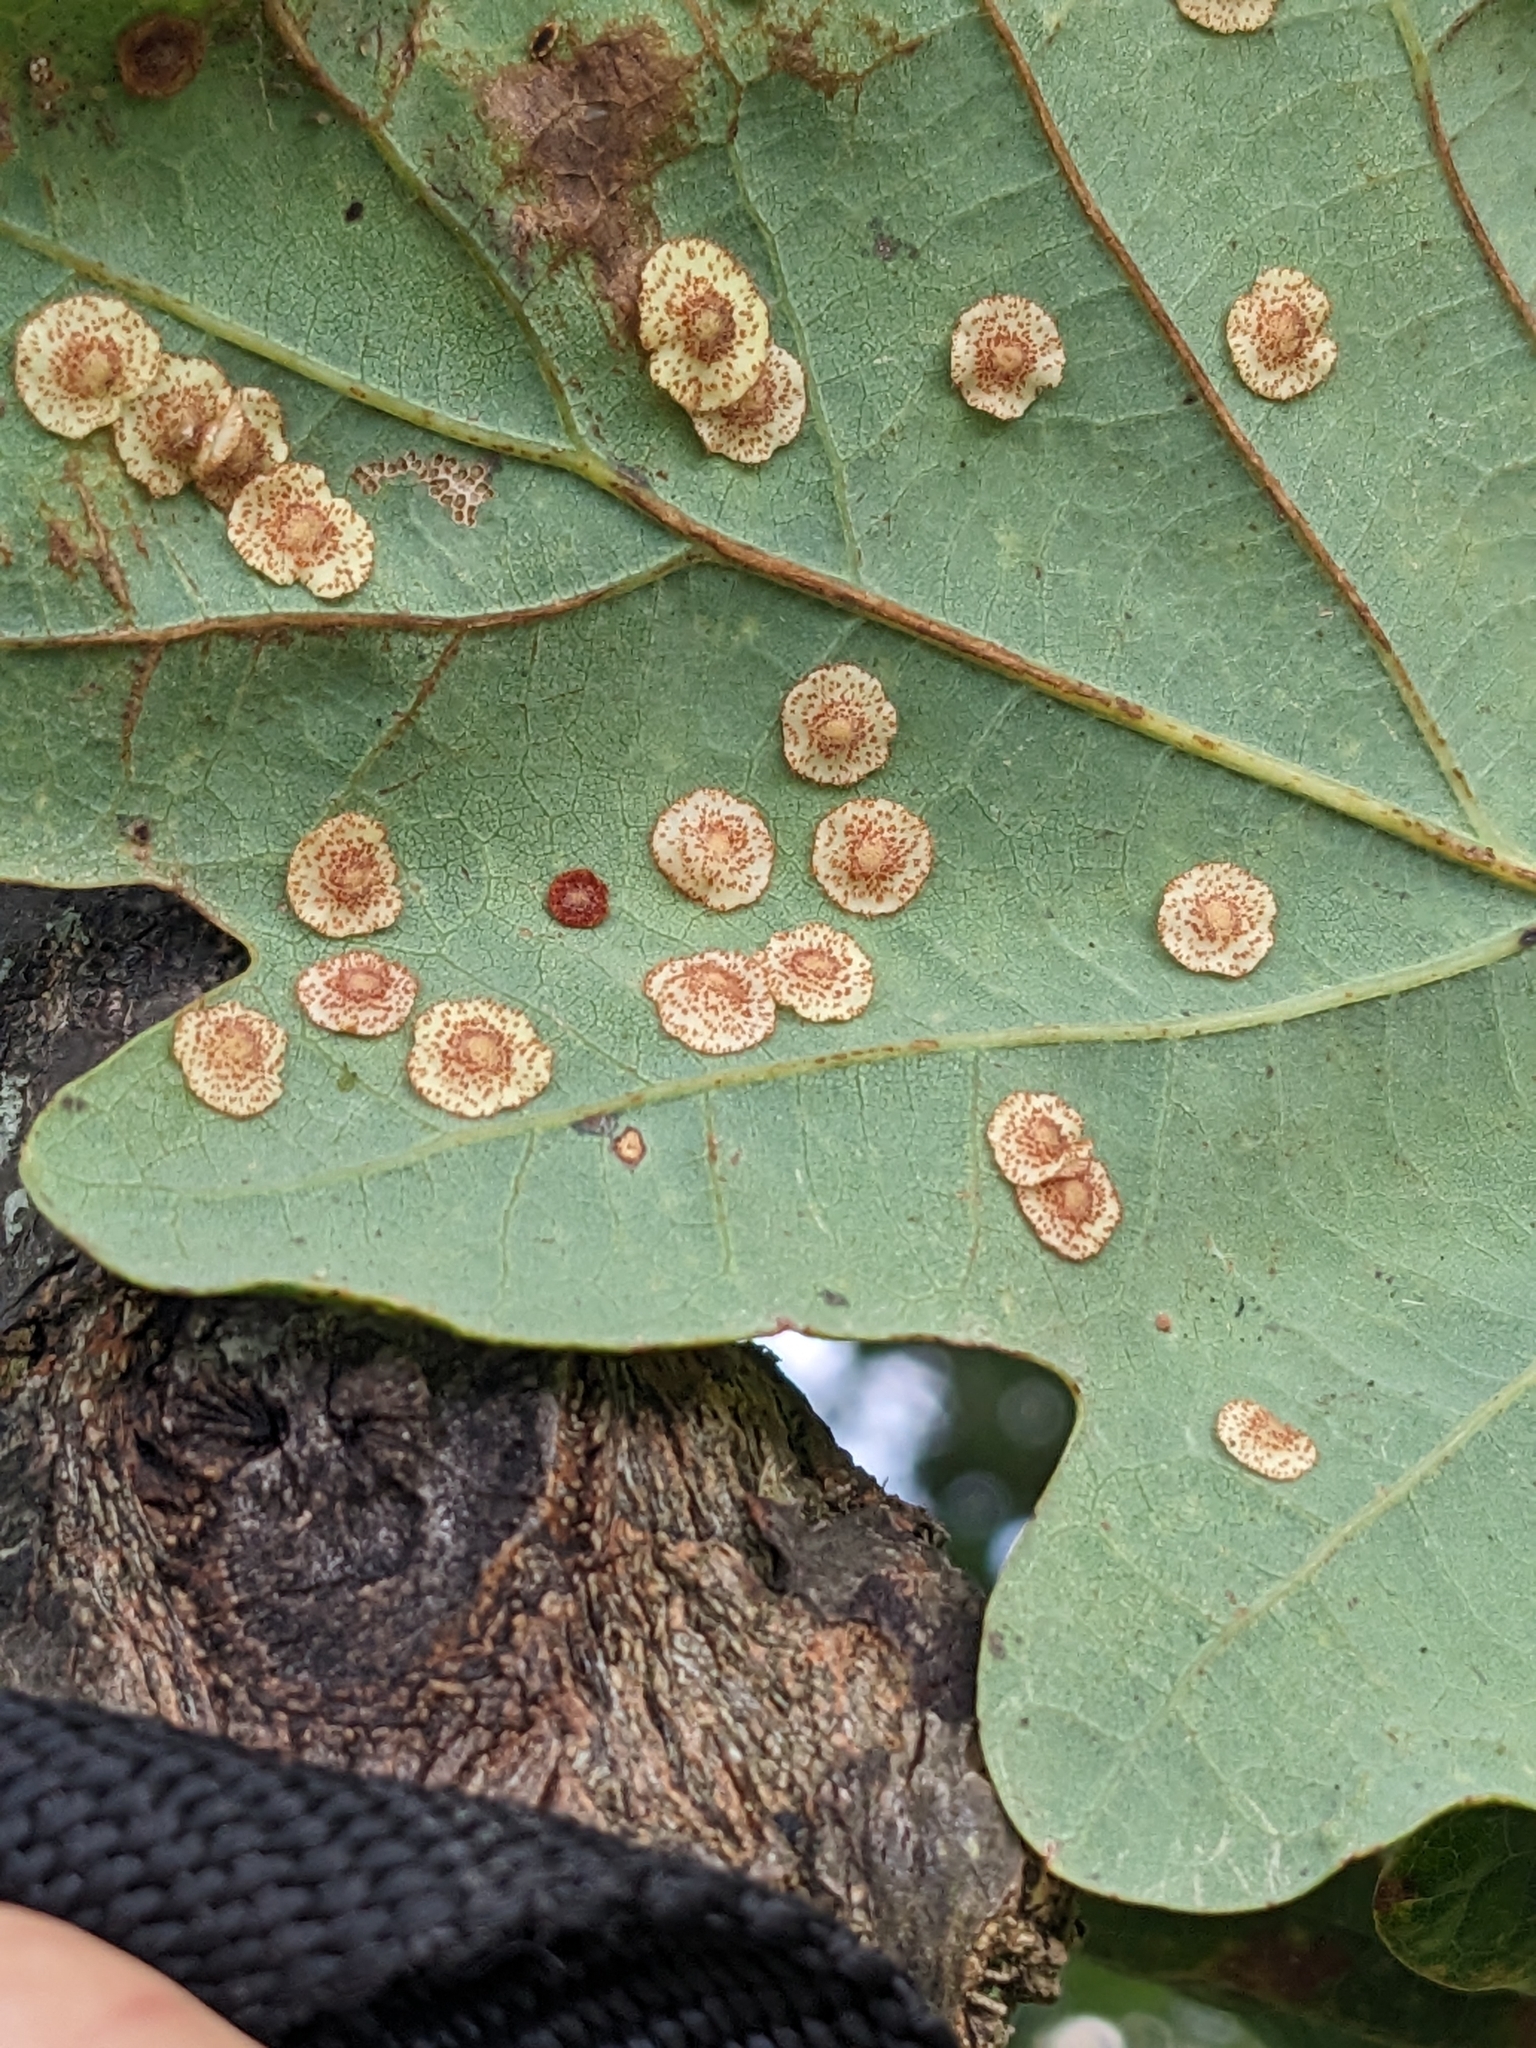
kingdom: Animalia
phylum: Arthropoda
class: Insecta
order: Hymenoptera
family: Cynipidae
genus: Neuroterus
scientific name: Neuroterus quercusbaccarum
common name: Common spangle gall
